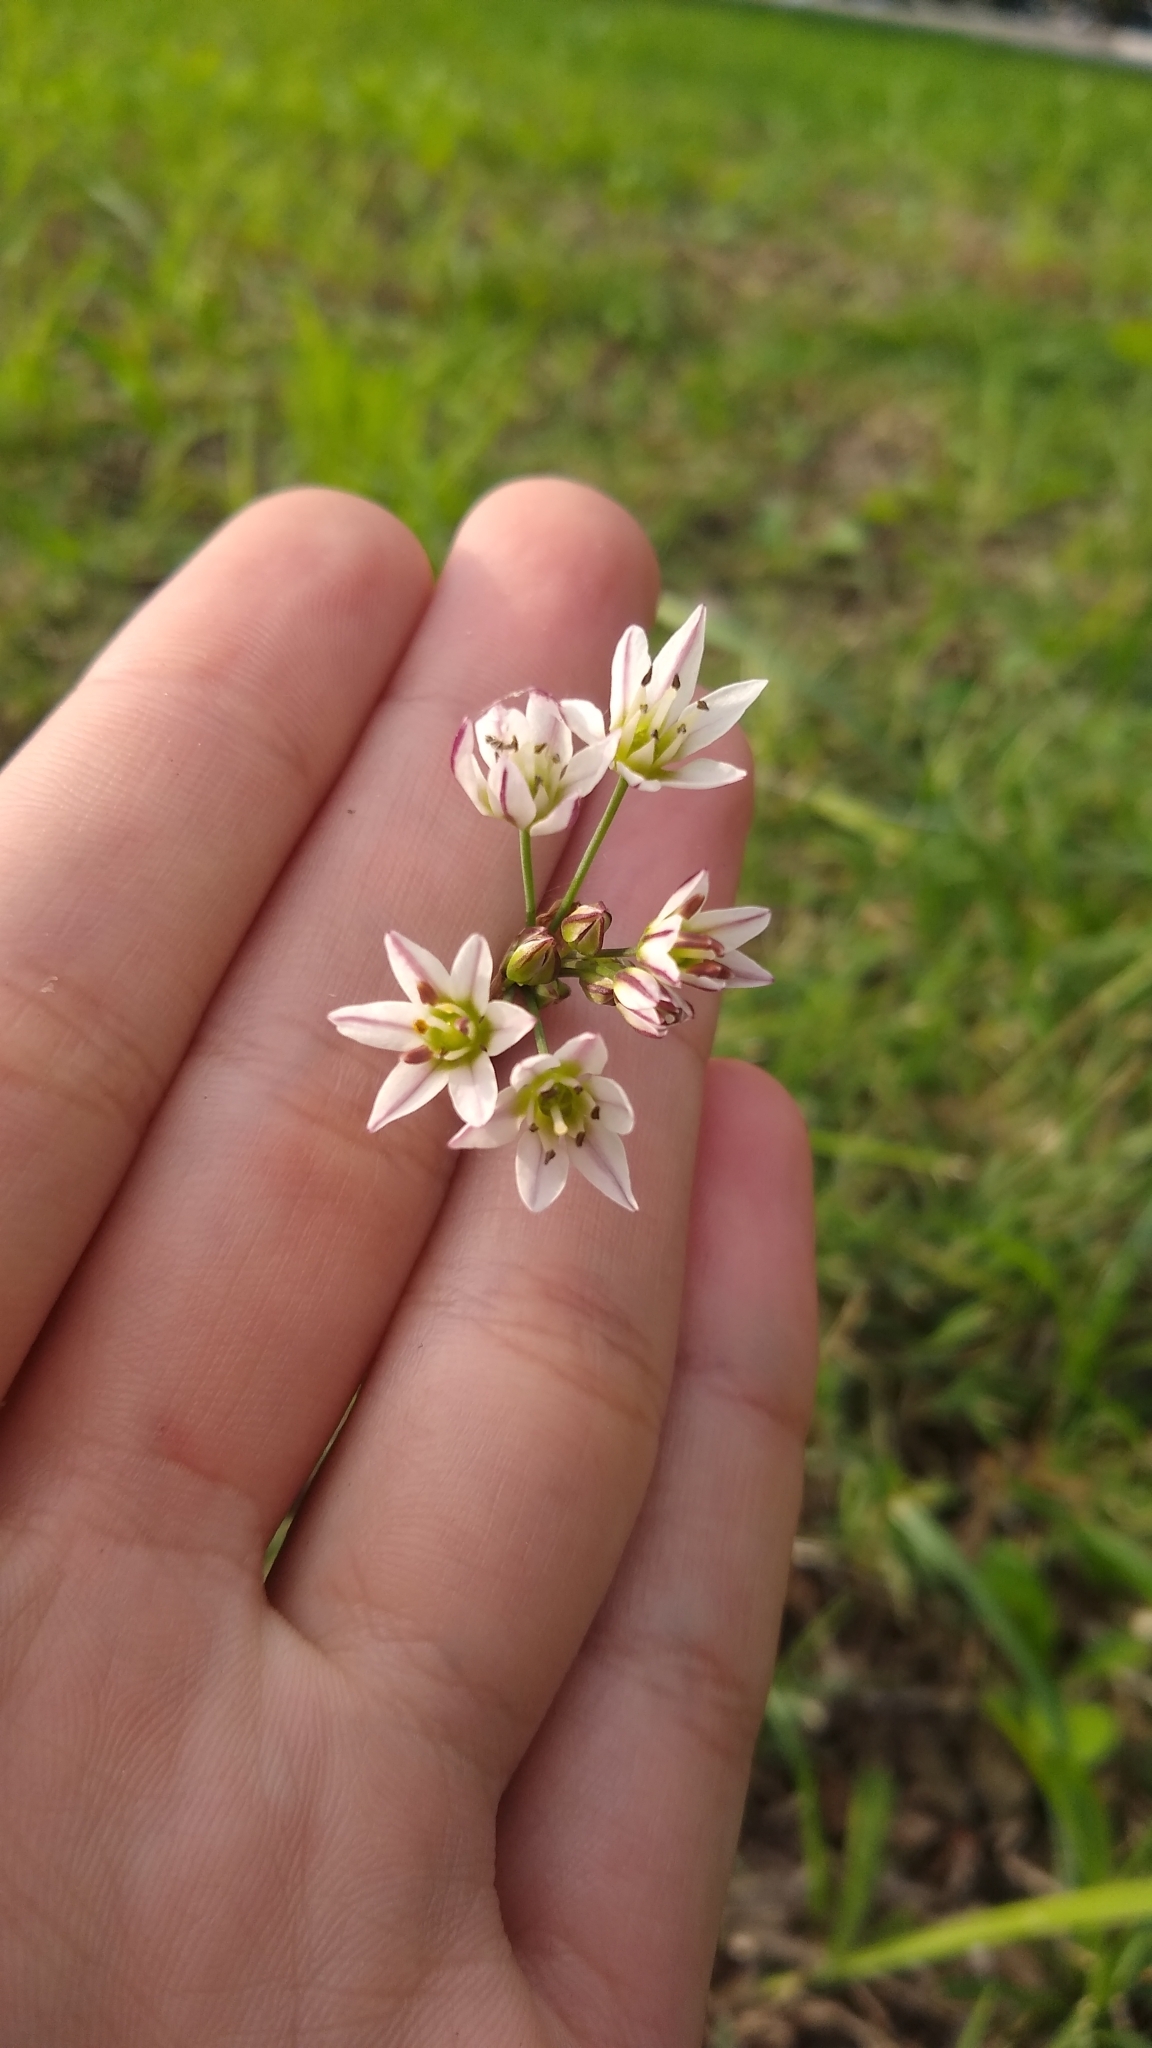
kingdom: Plantae
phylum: Tracheophyta
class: Liliopsida
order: Asparagales
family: Amaryllidaceae
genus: Nothoscordum
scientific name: Nothoscordum gracile
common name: Slender false garlic
